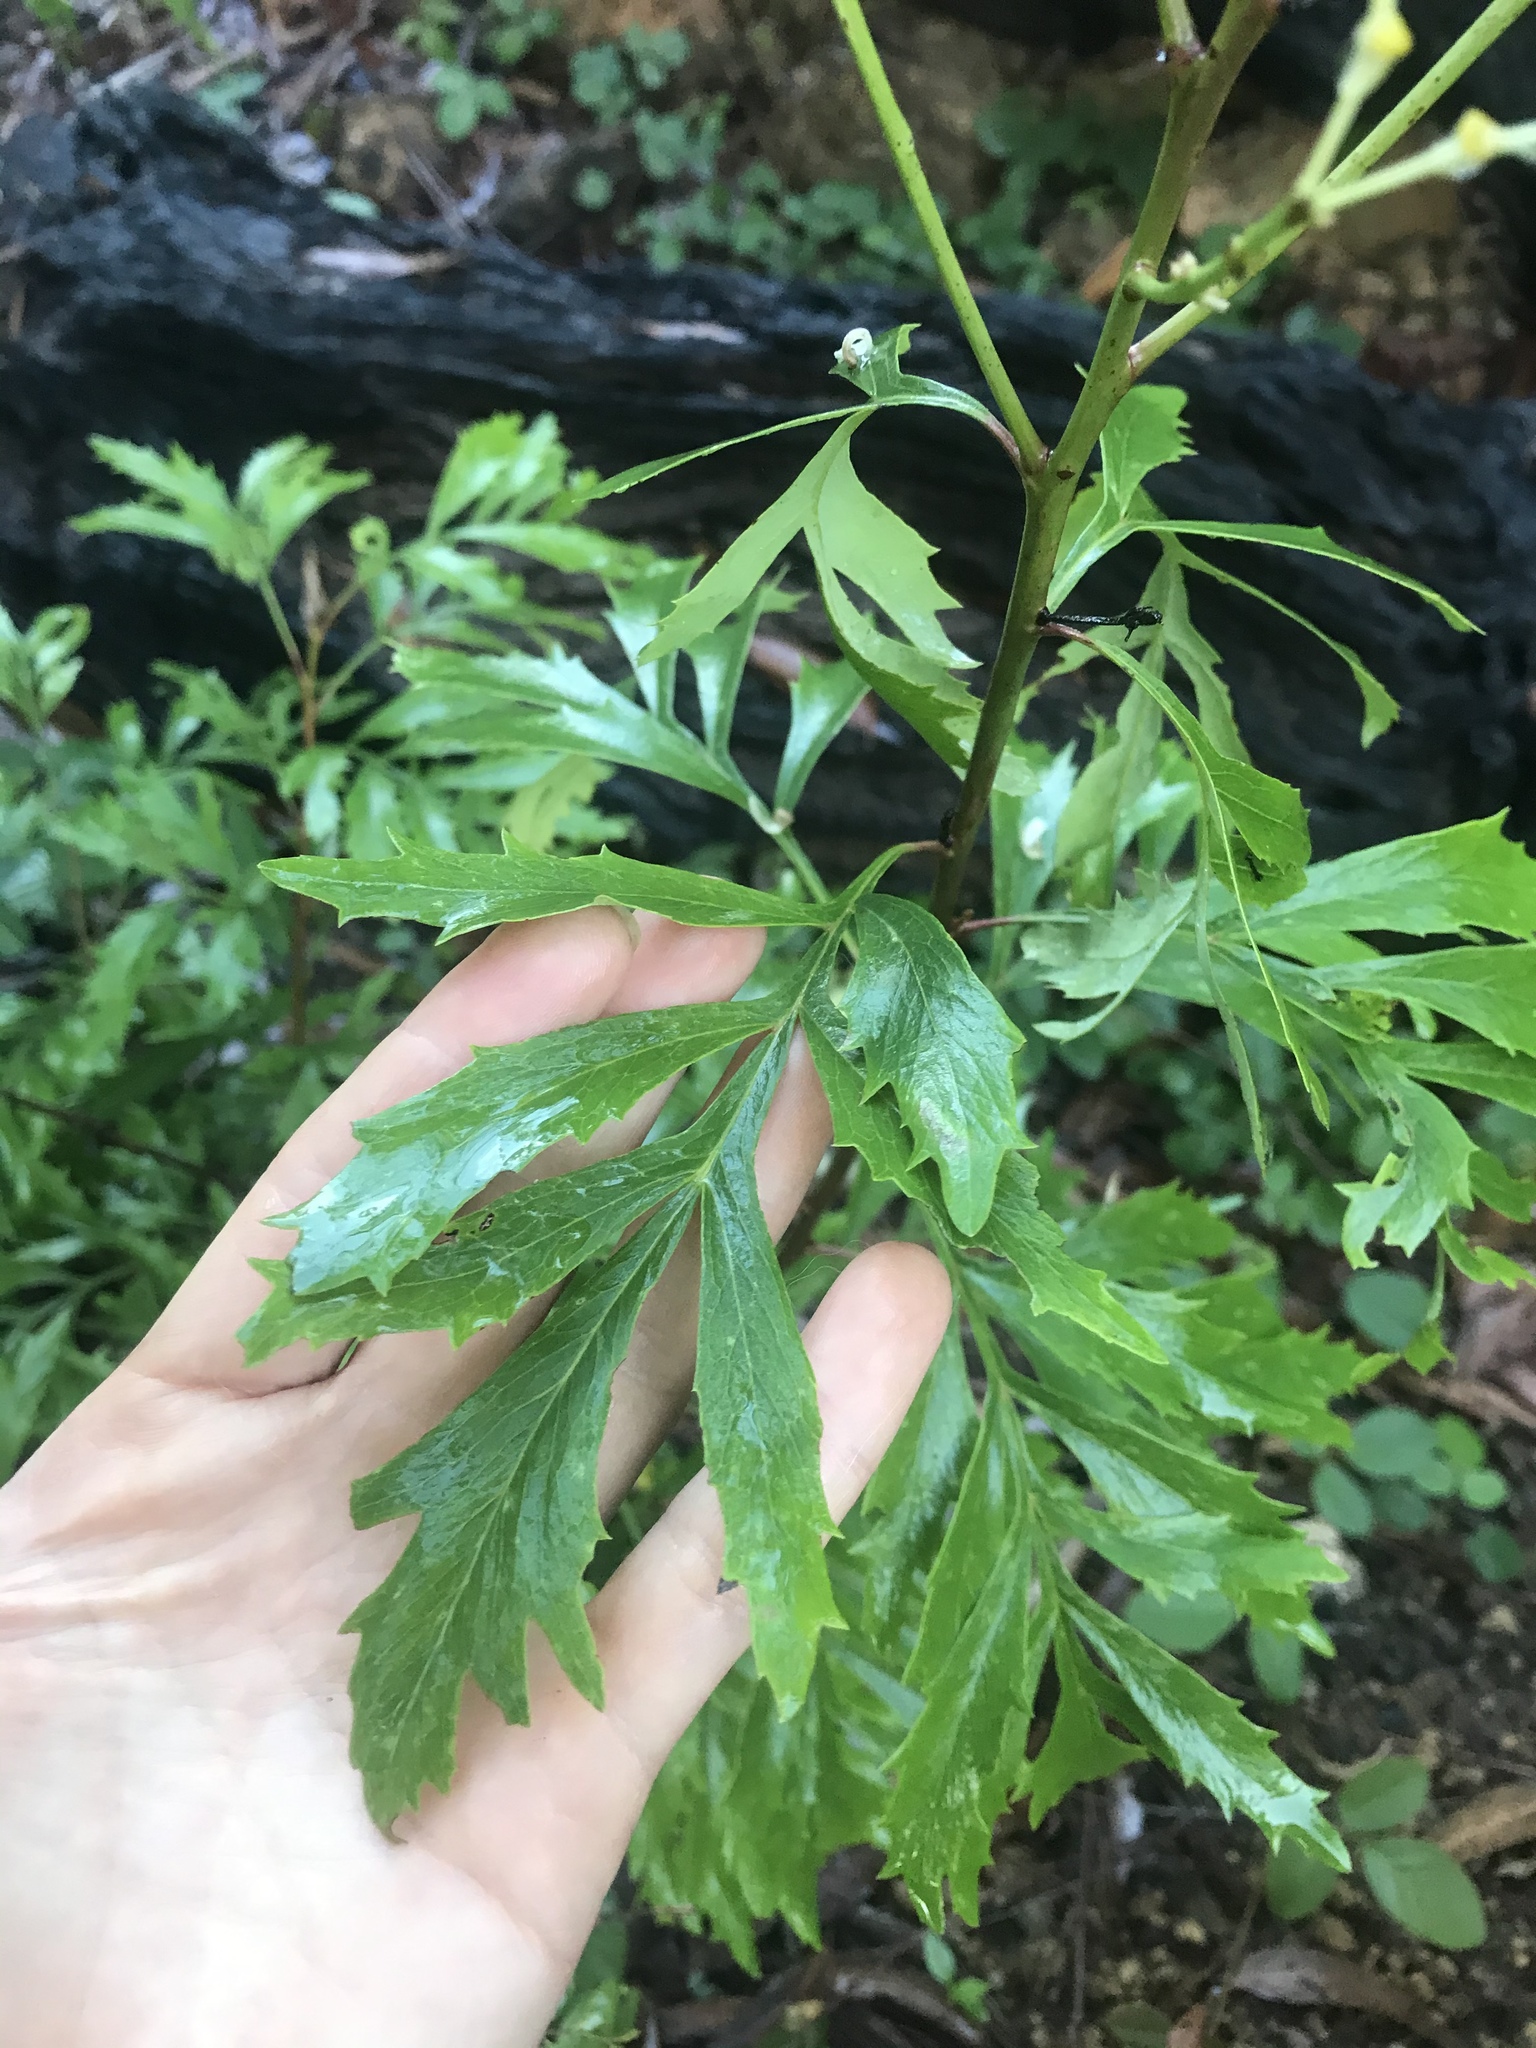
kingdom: Plantae
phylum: Tracheophyta
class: Magnoliopsida
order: Proteales
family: Proteaceae
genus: Lomatia
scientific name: Lomatia silaifolia
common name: Crinklebush
